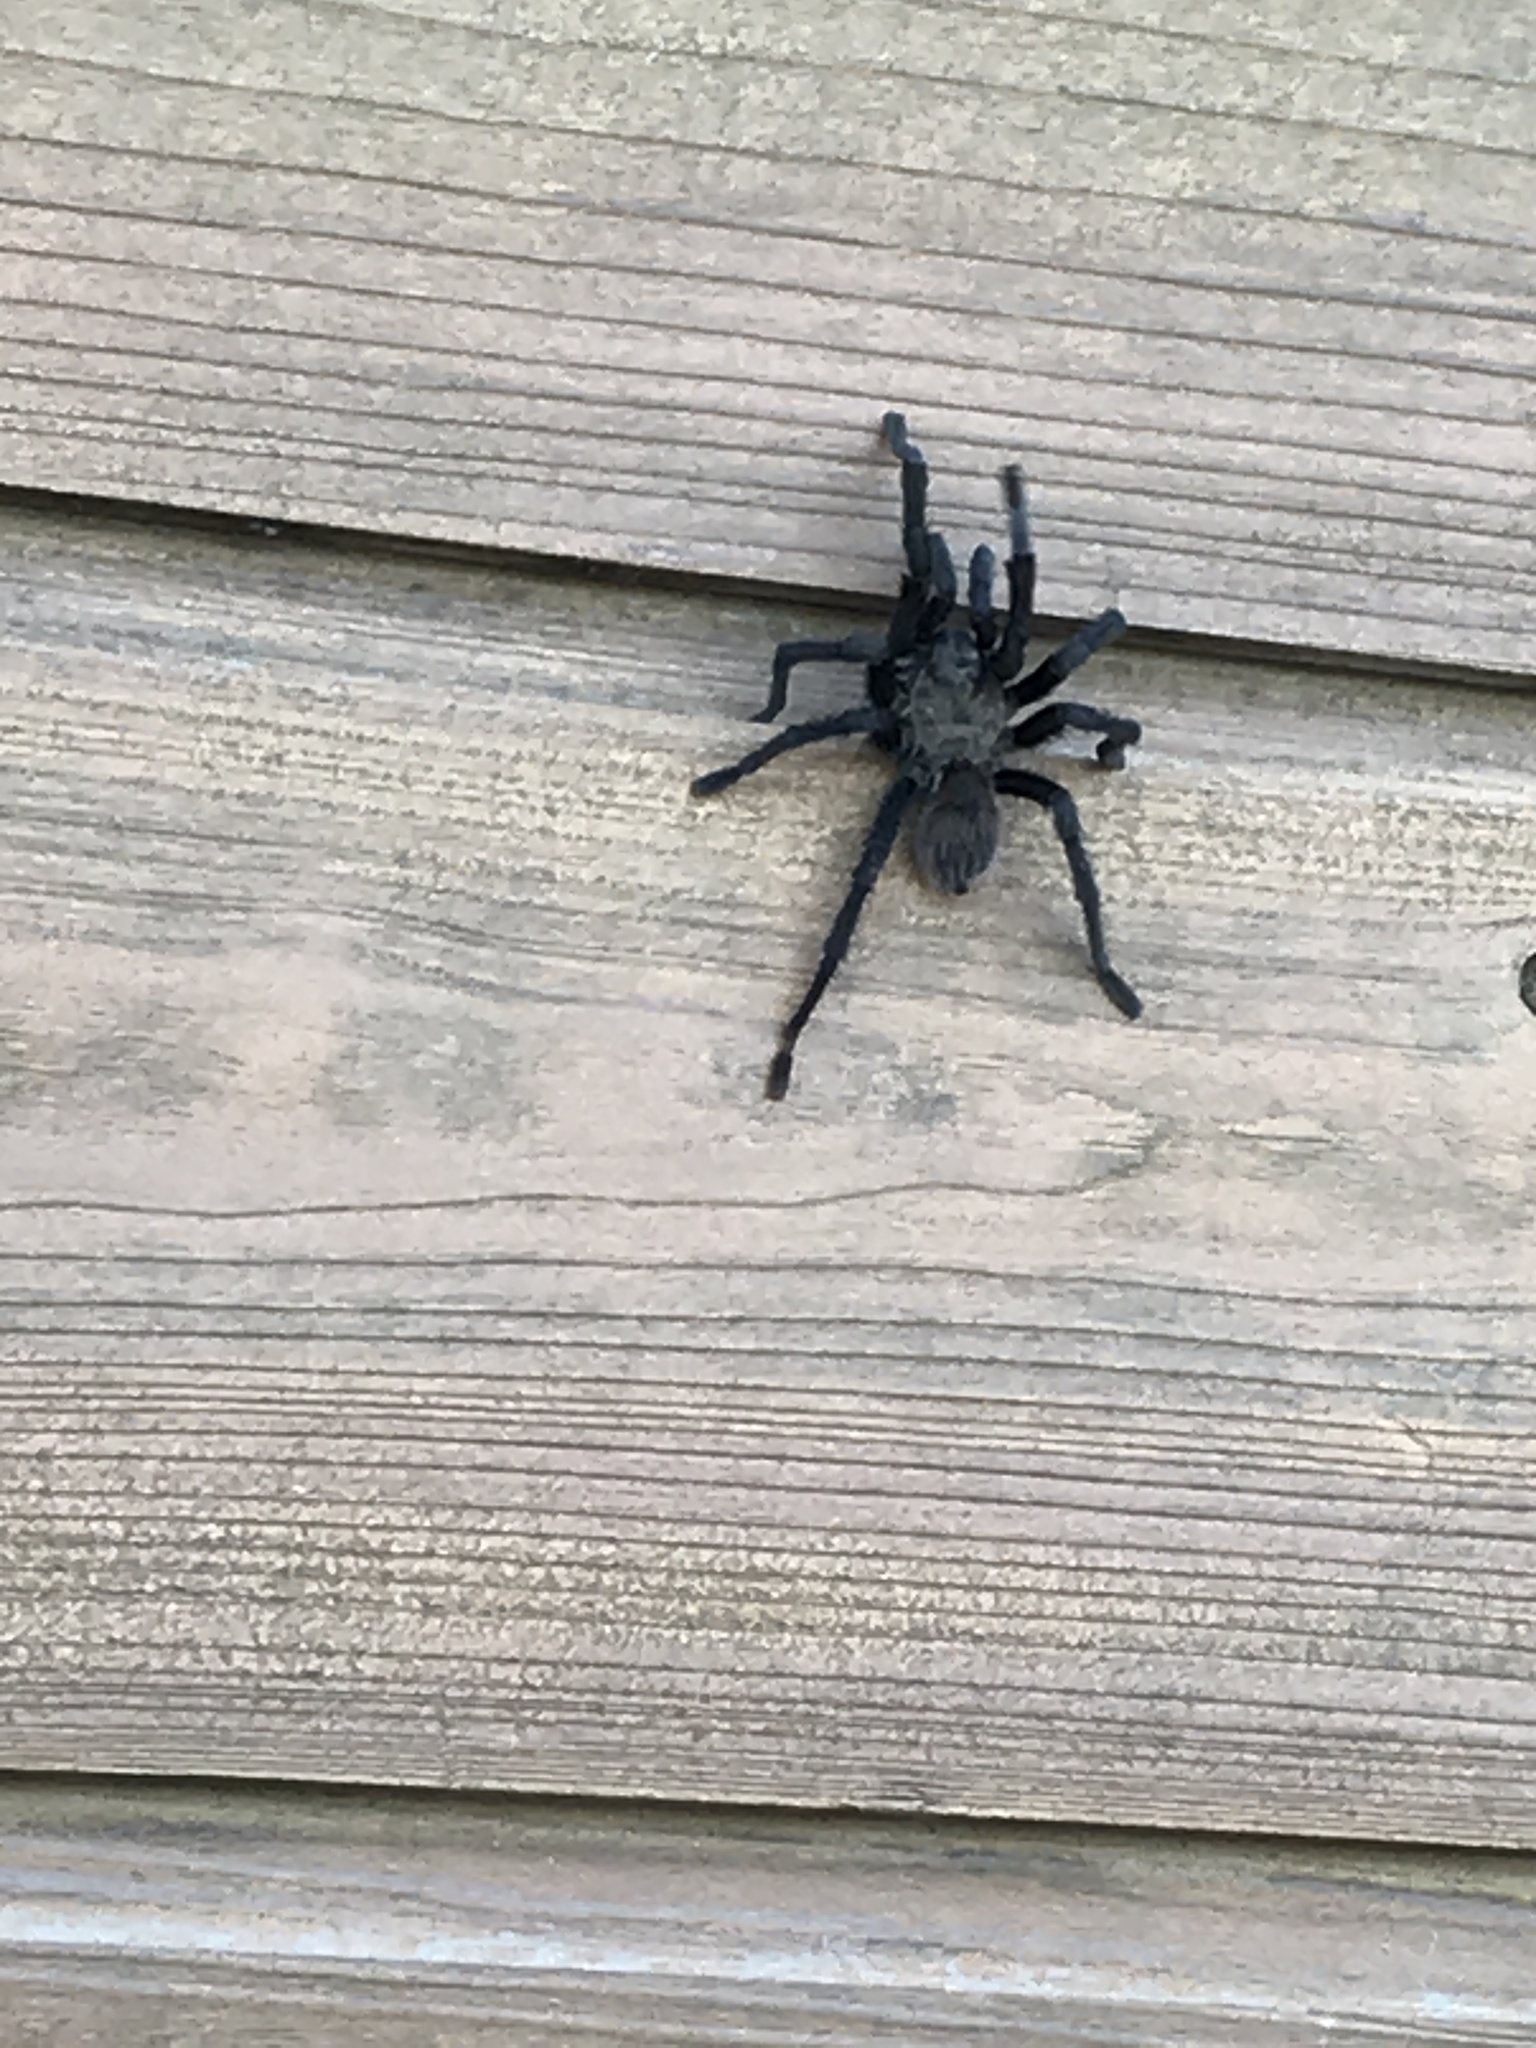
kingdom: Animalia
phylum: Arthropoda
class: Arachnida
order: Araneae
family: Theraphosidae
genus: Aphonopelma
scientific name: Aphonopelma anax
